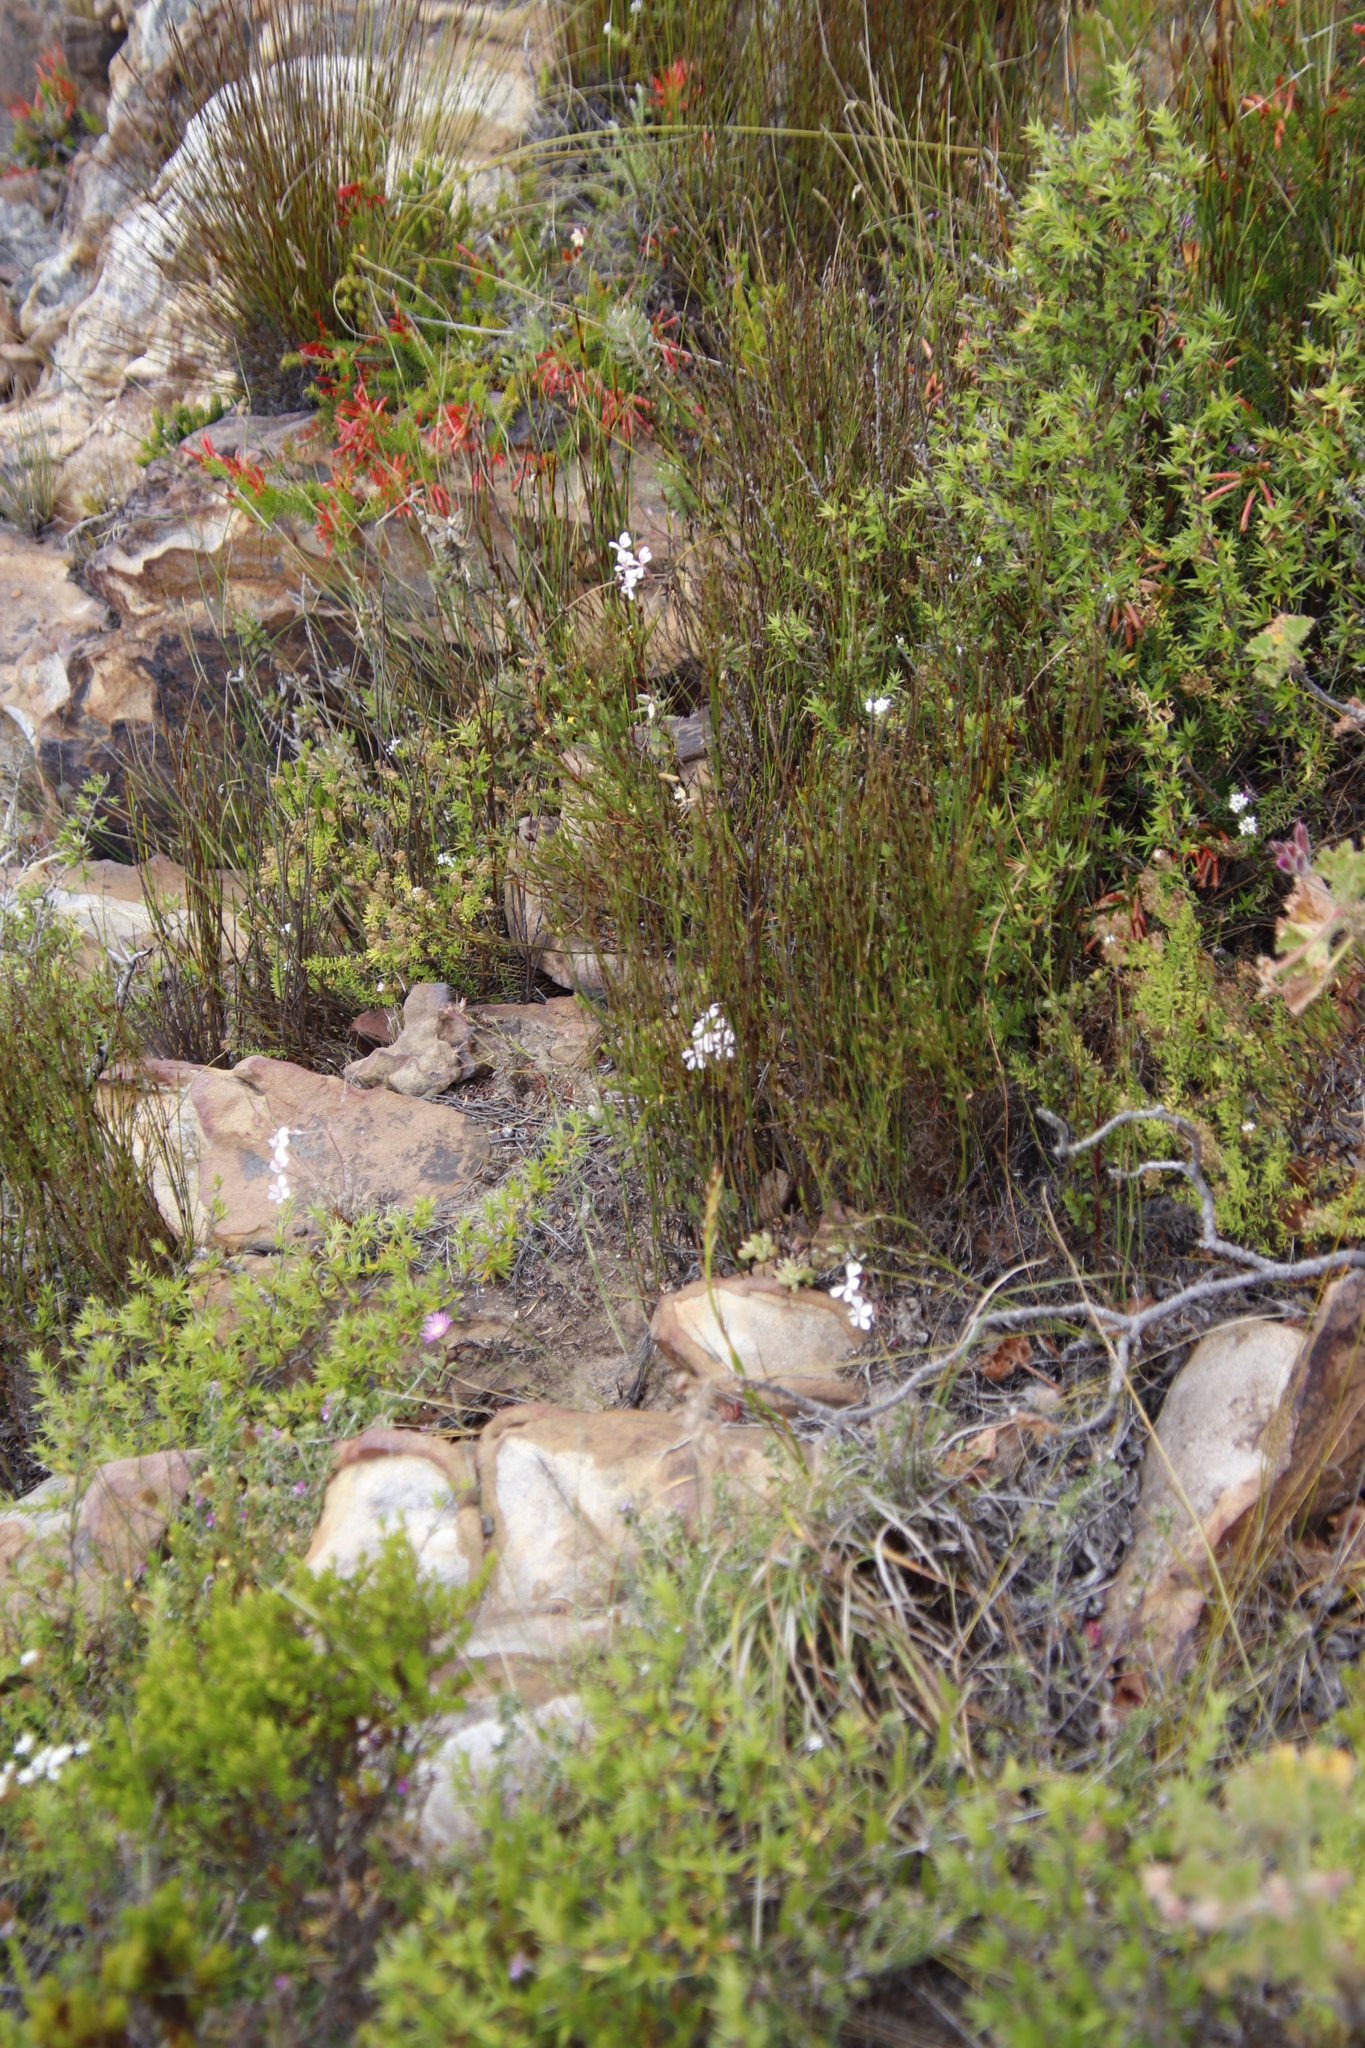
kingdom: Plantae
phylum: Tracheophyta
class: Magnoliopsida
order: Geraniales
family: Geraniaceae
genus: Pelargonium
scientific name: Pelargonium pinnatum
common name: Pinnated pelargonium
